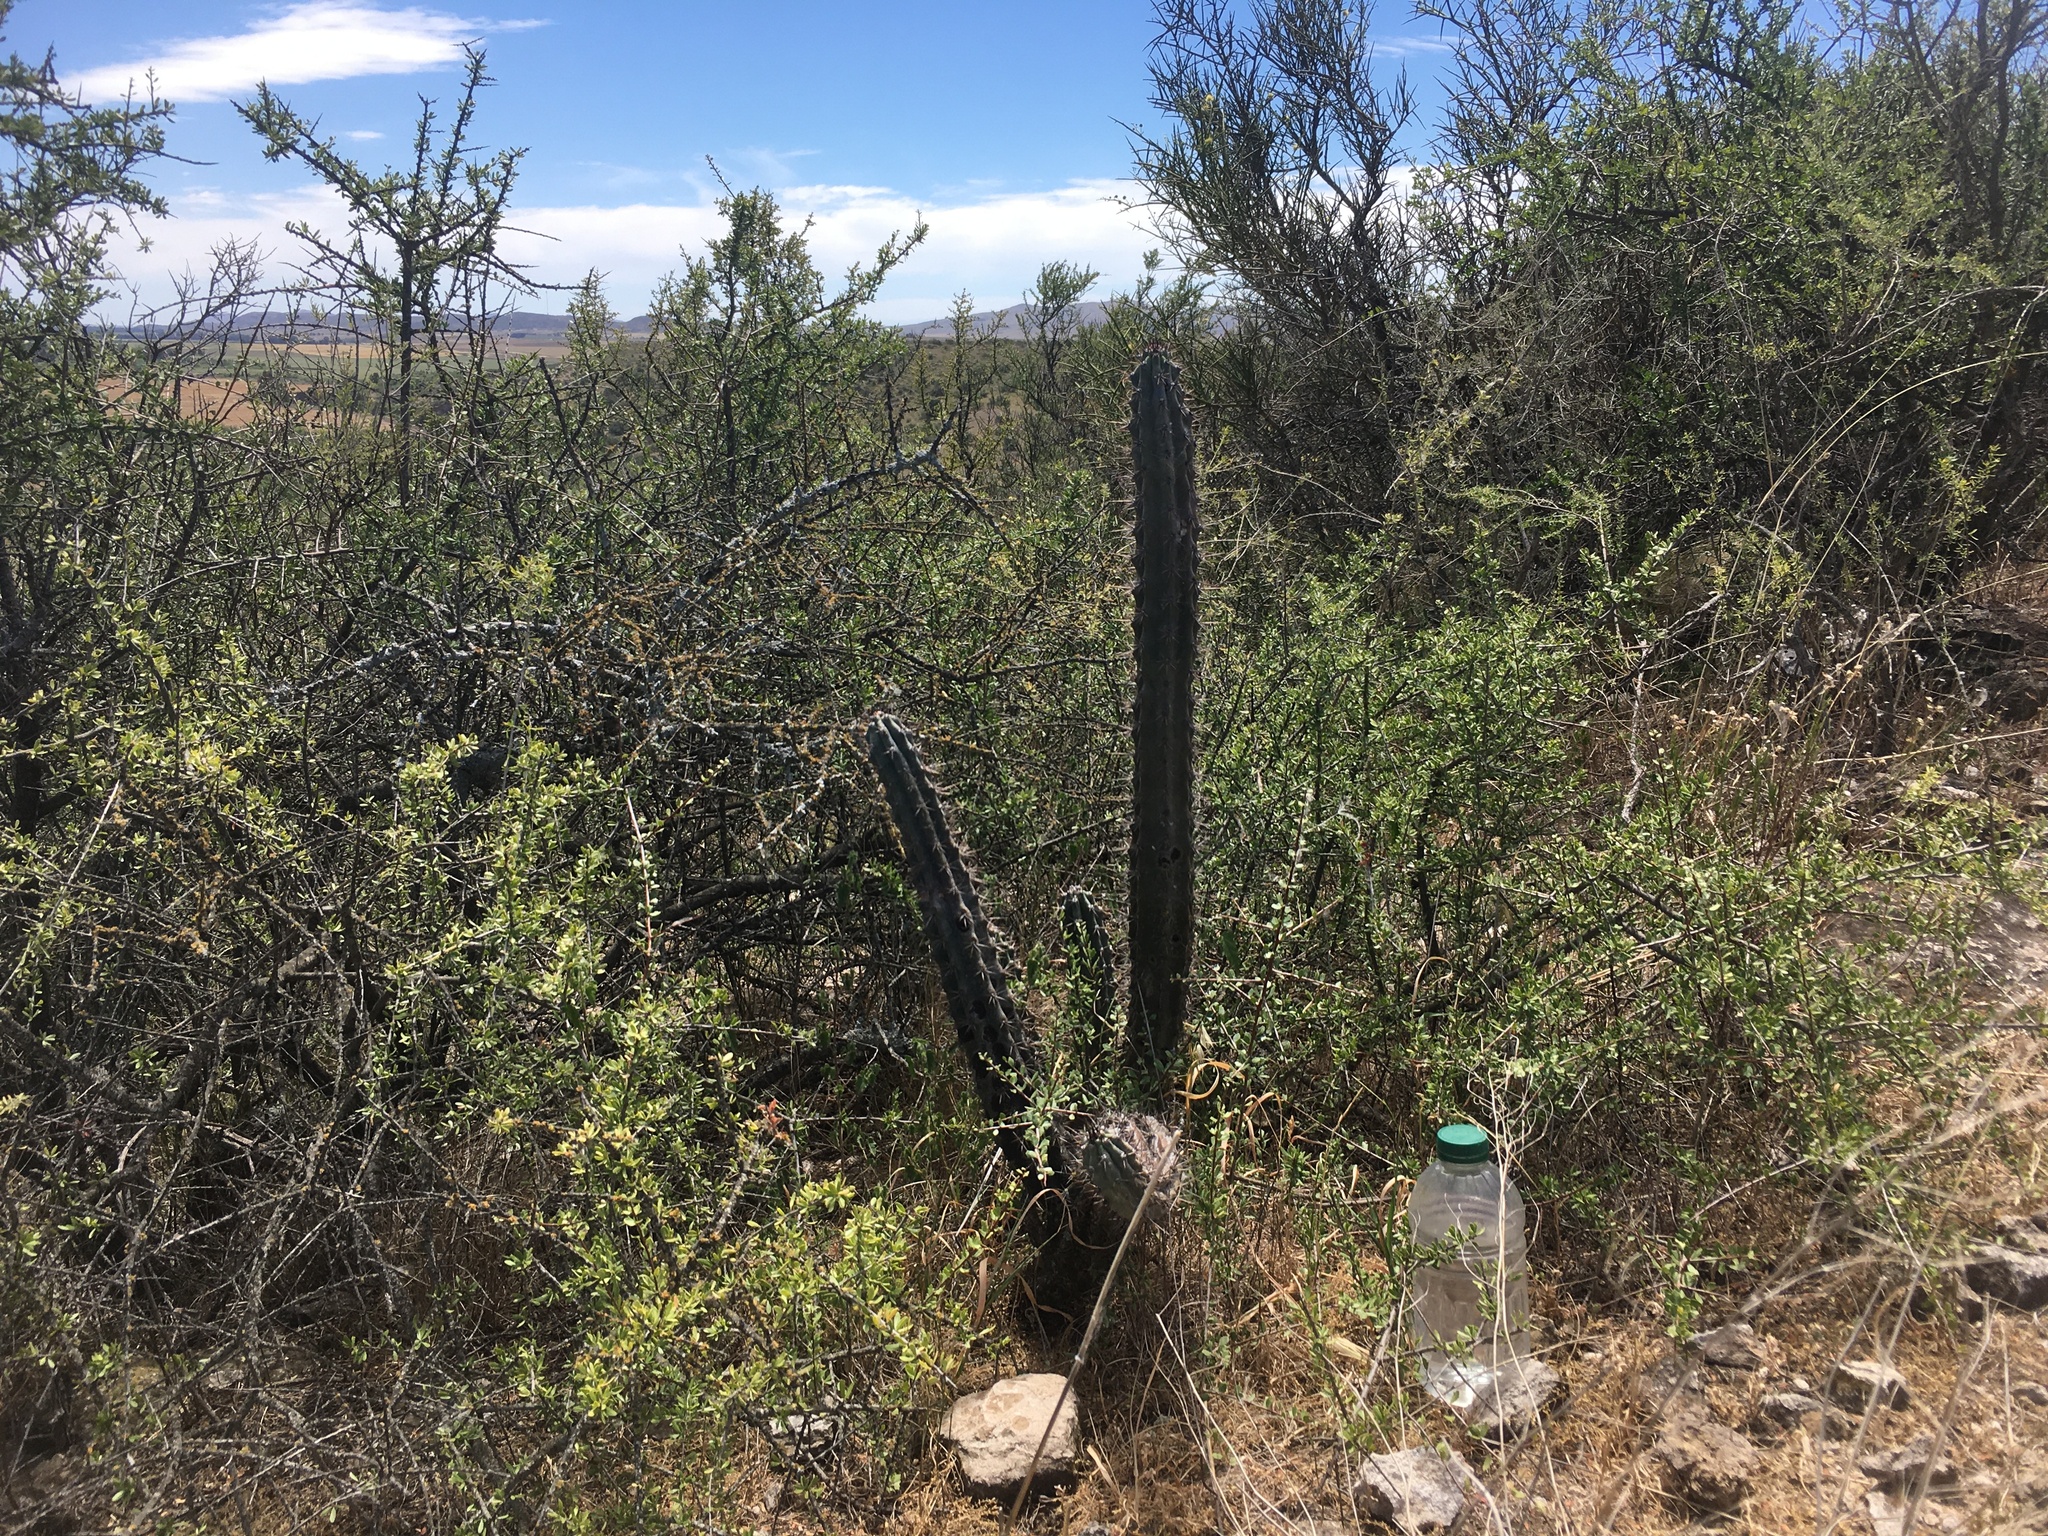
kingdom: Plantae
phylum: Tracheophyta
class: Magnoliopsida
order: Caryophyllales
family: Cactaceae
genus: Cereus
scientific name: Cereus aethiops
